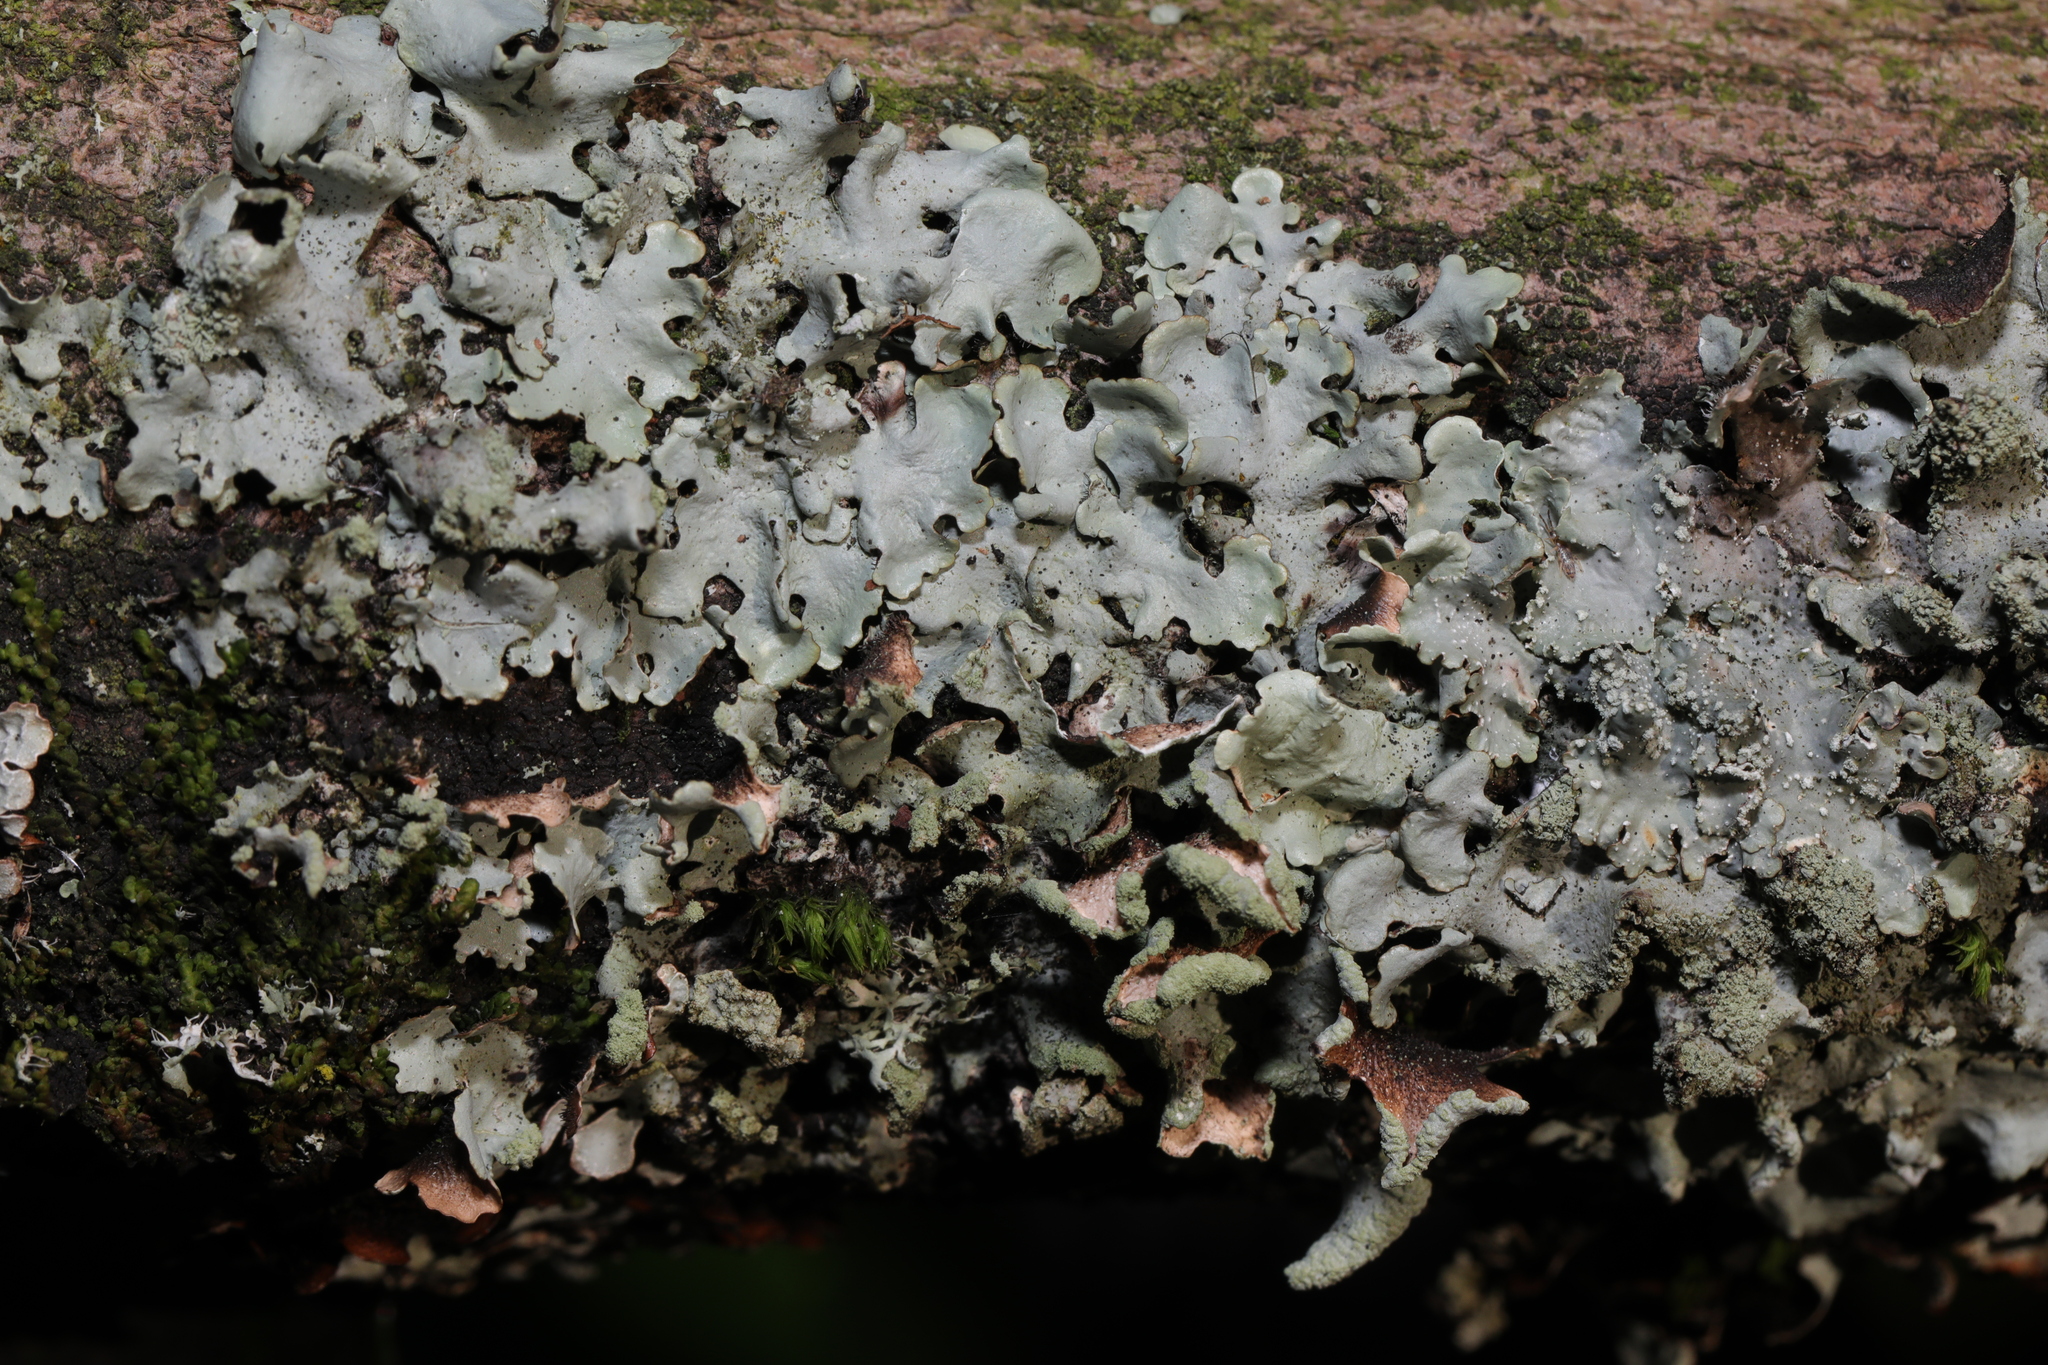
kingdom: Fungi
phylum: Ascomycota
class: Lecanoromycetes
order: Lecanorales
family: Parmeliaceae
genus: Hypotrachyna
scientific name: Hypotrachyna revoluta
